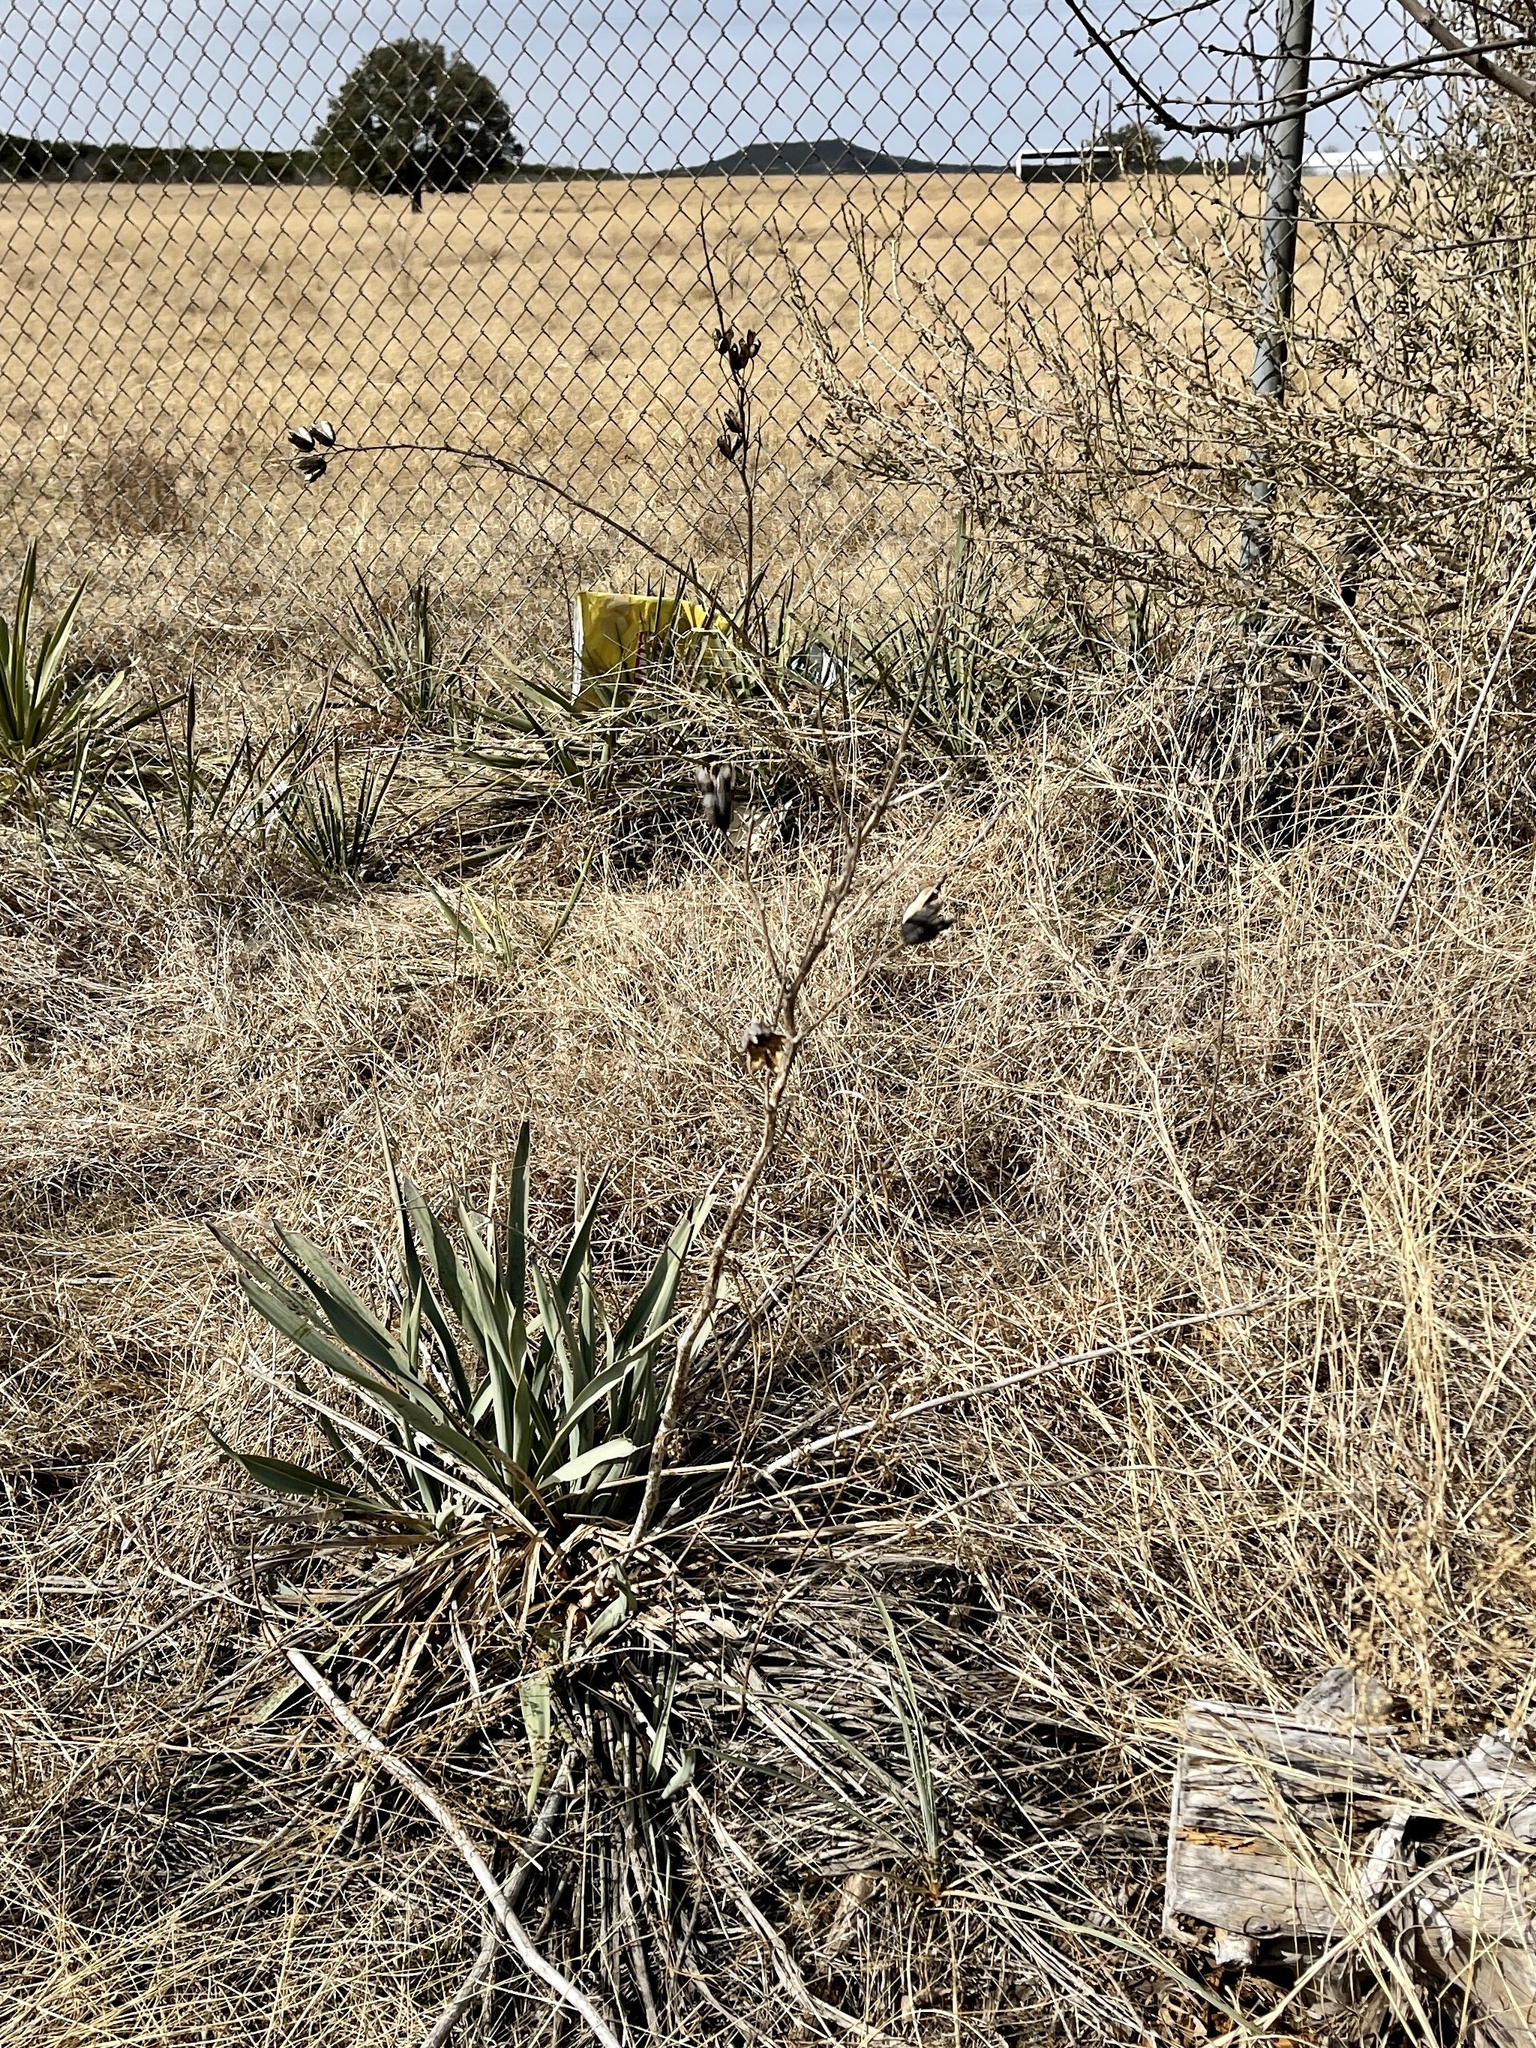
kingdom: Plantae
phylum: Tracheophyta
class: Liliopsida
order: Asparagales
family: Asparagaceae
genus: Yucca
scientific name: Yucca pallida
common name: Pale leaf yucca
